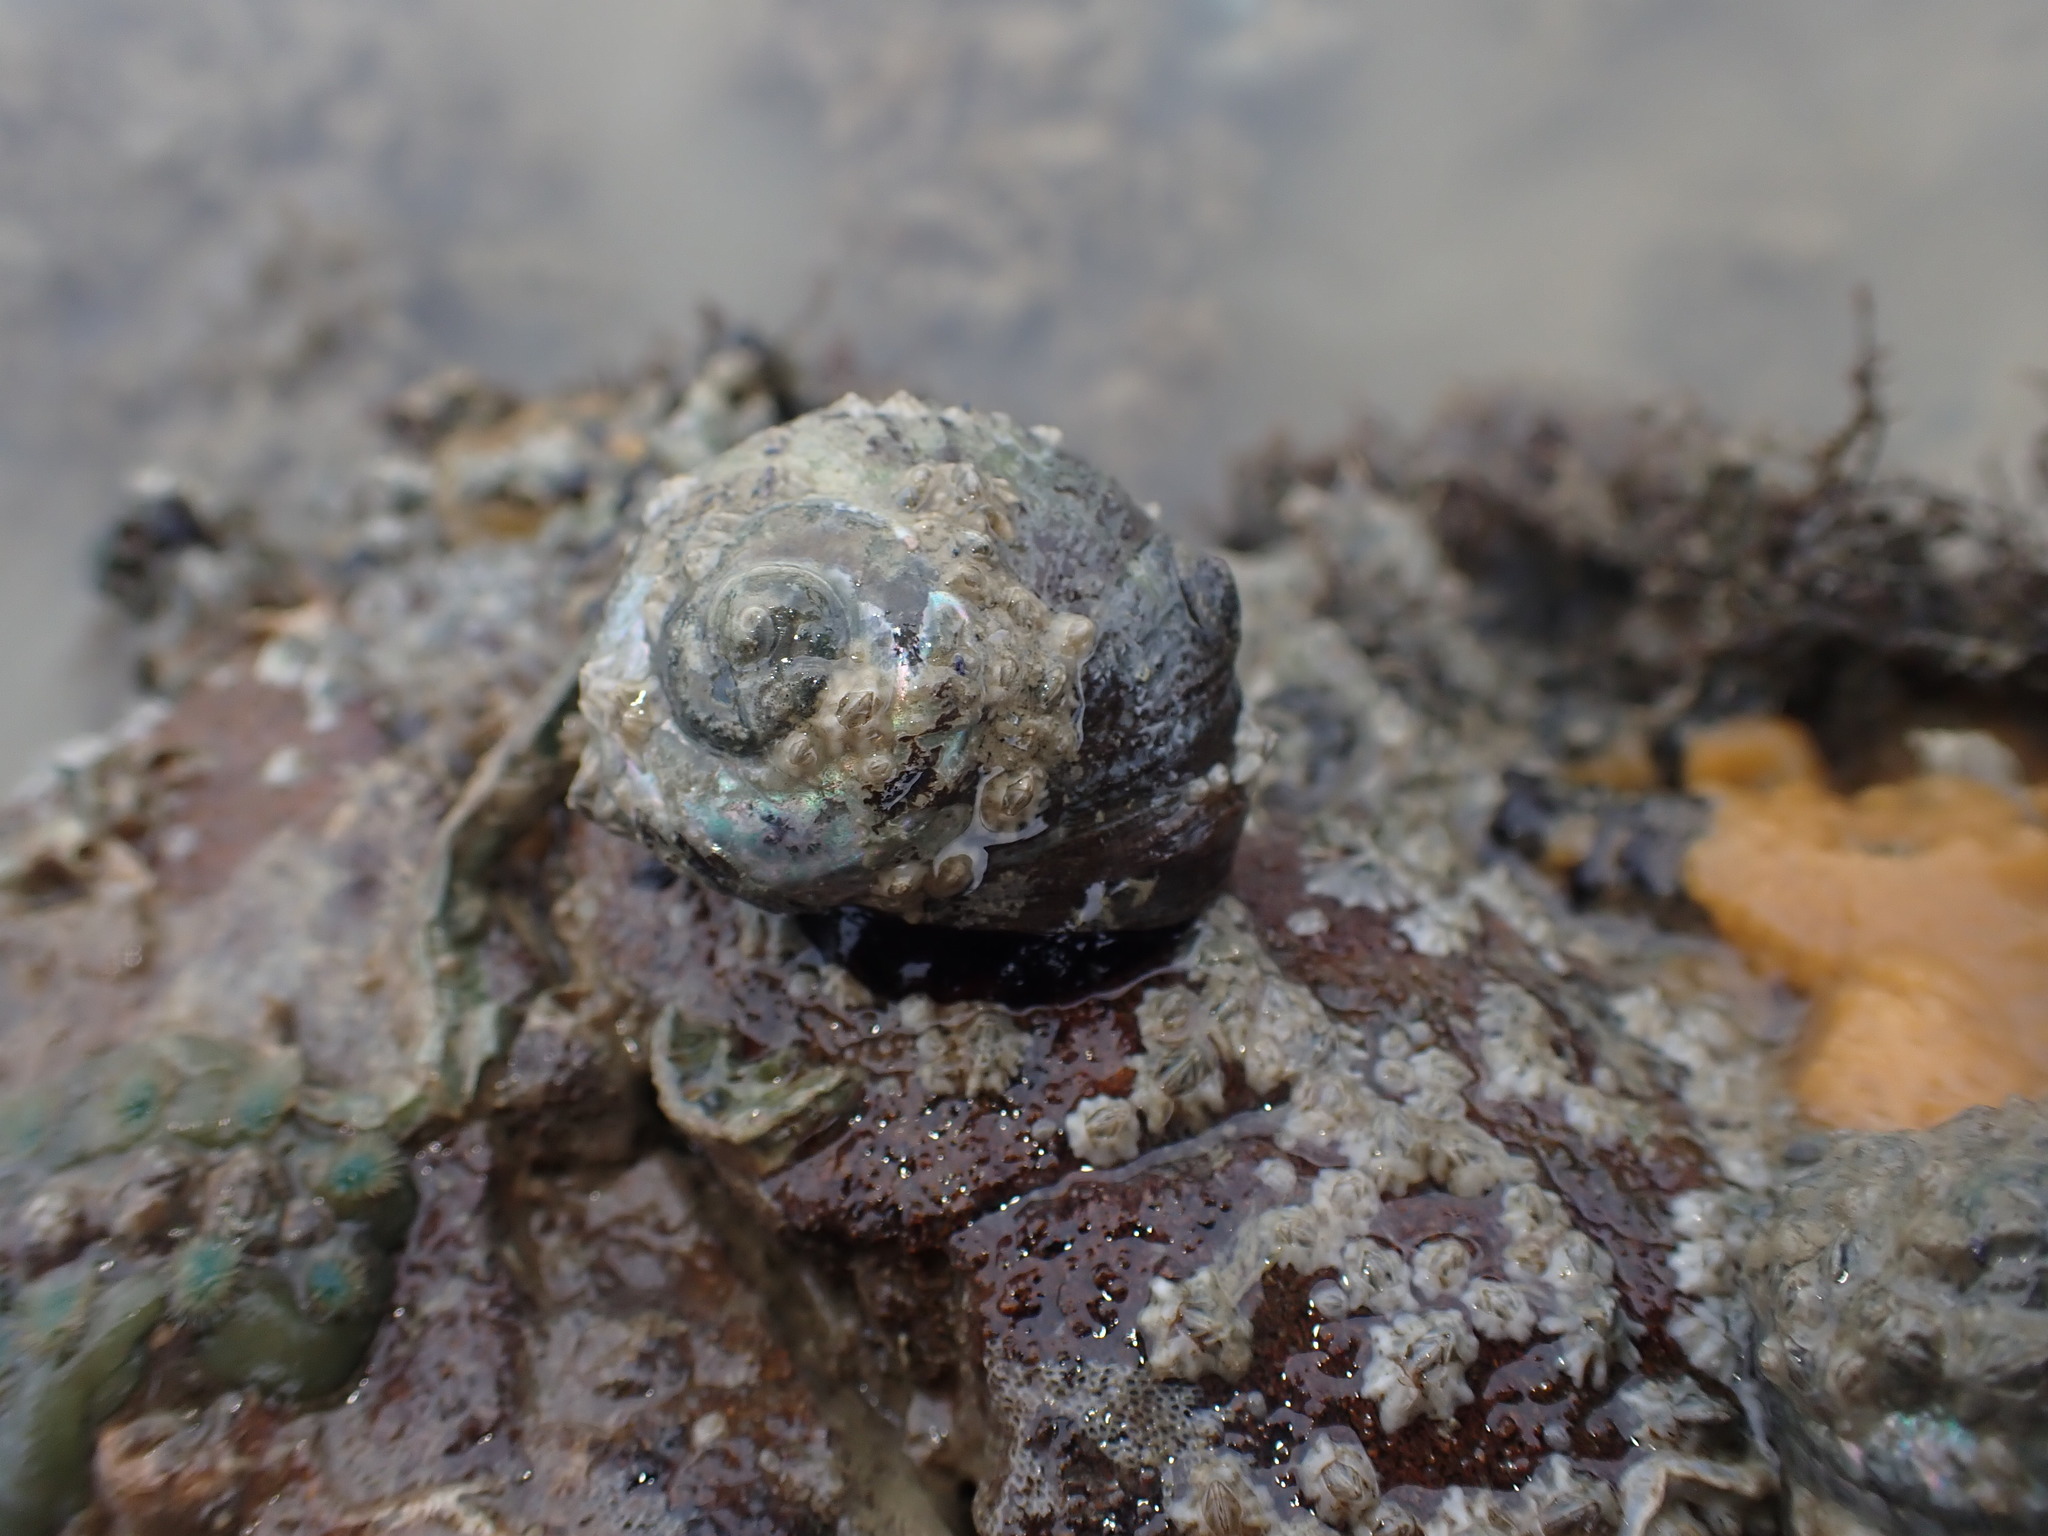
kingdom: Animalia
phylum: Mollusca
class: Gastropoda
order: Trochida
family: Turbinidae
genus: Lunella
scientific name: Lunella smaragda
